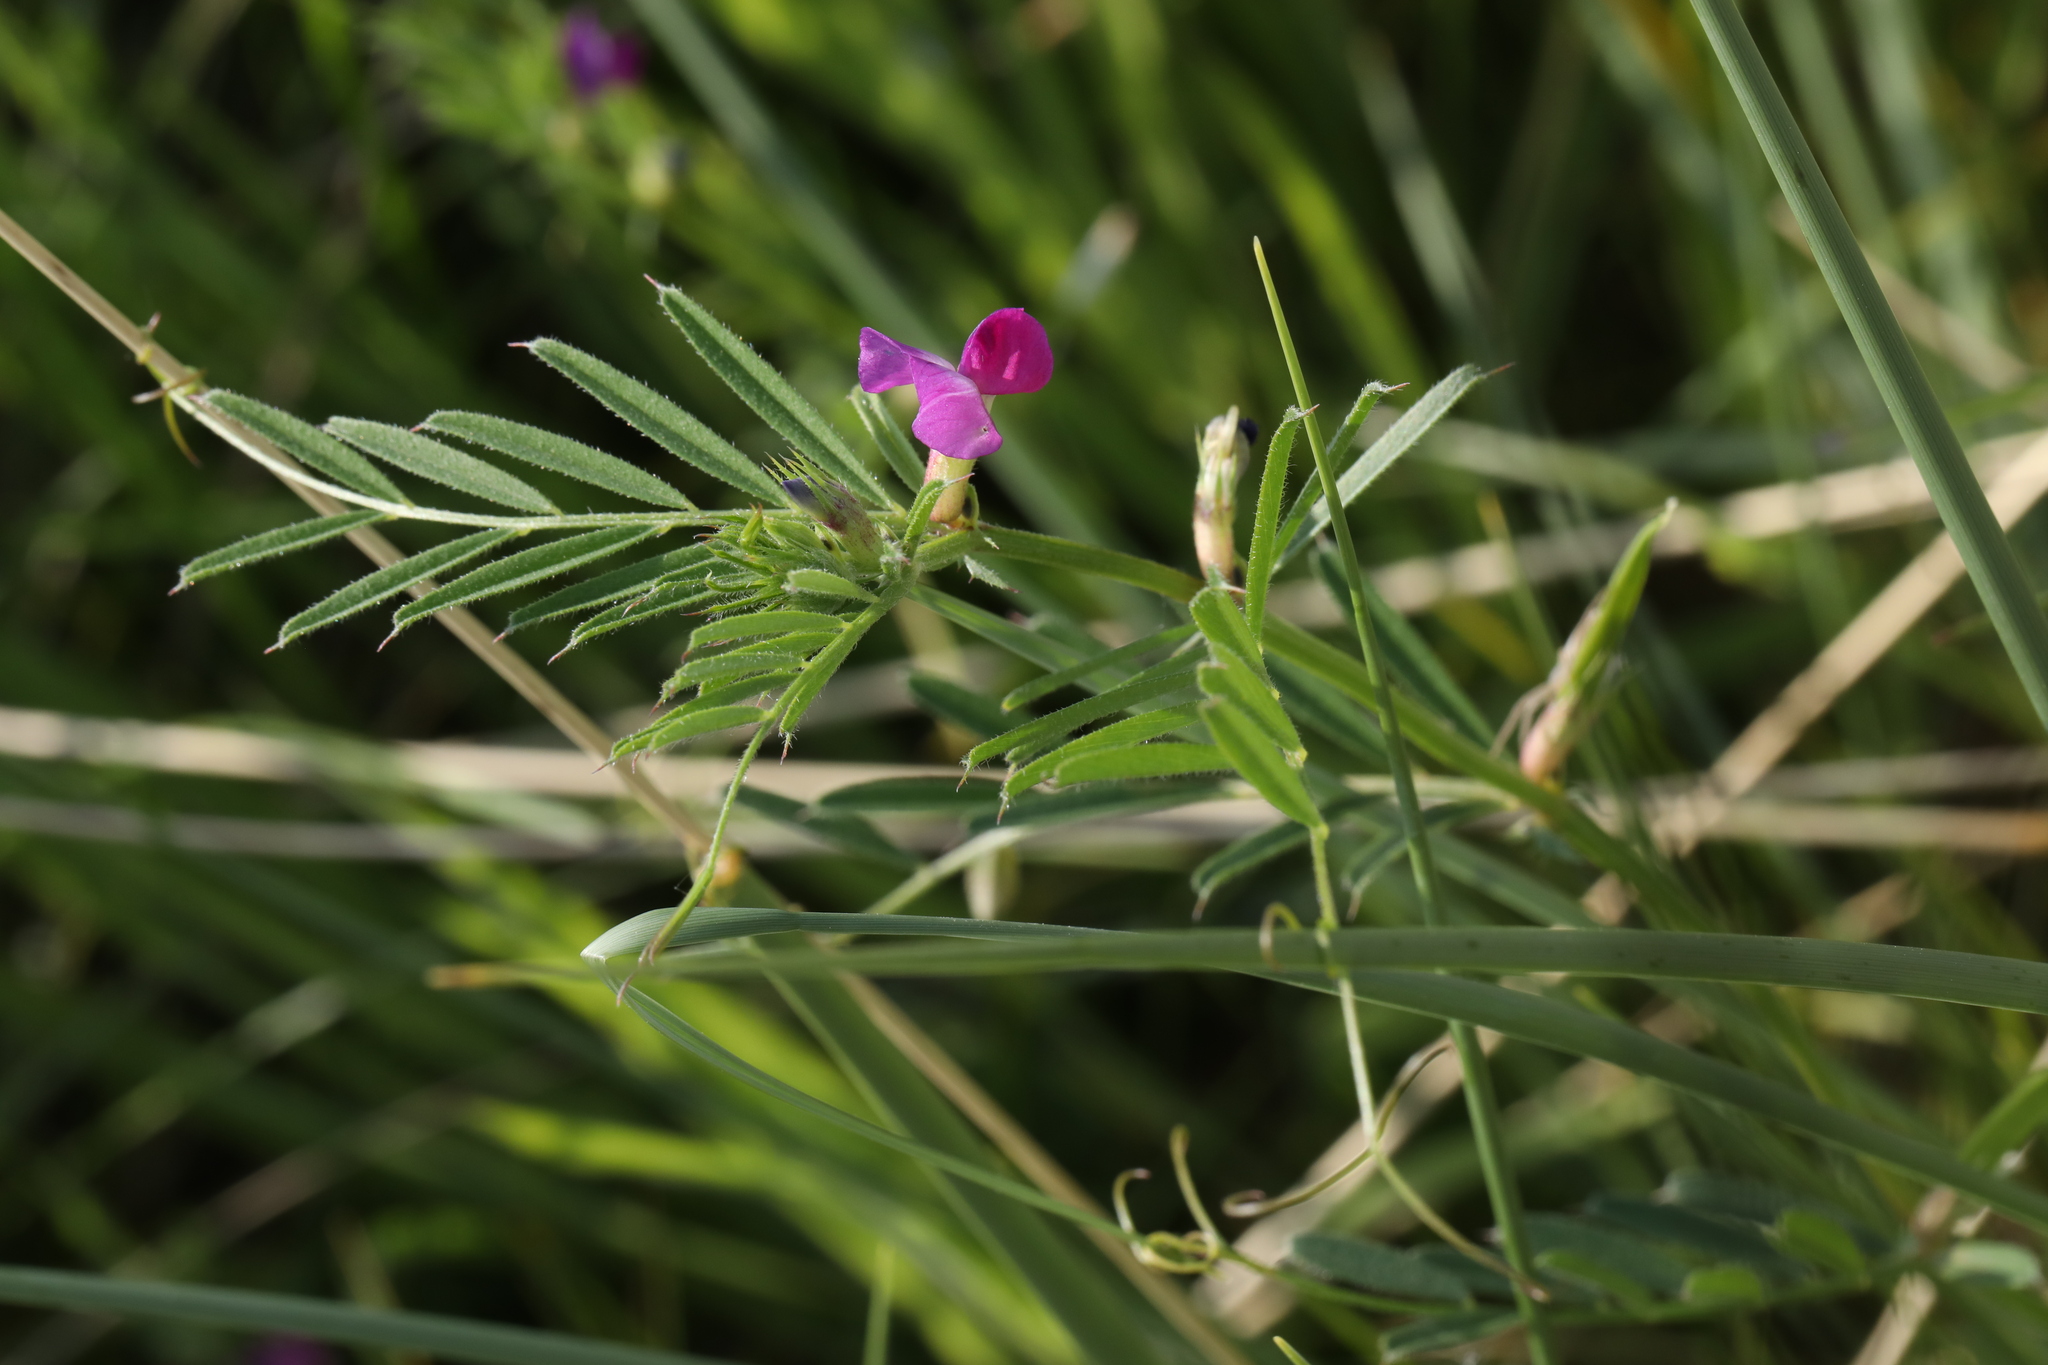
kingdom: Plantae
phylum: Tracheophyta
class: Magnoliopsida
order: Fabales
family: Fabaceae
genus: Vicia
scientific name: Vicia sativa
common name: Garden vetch
